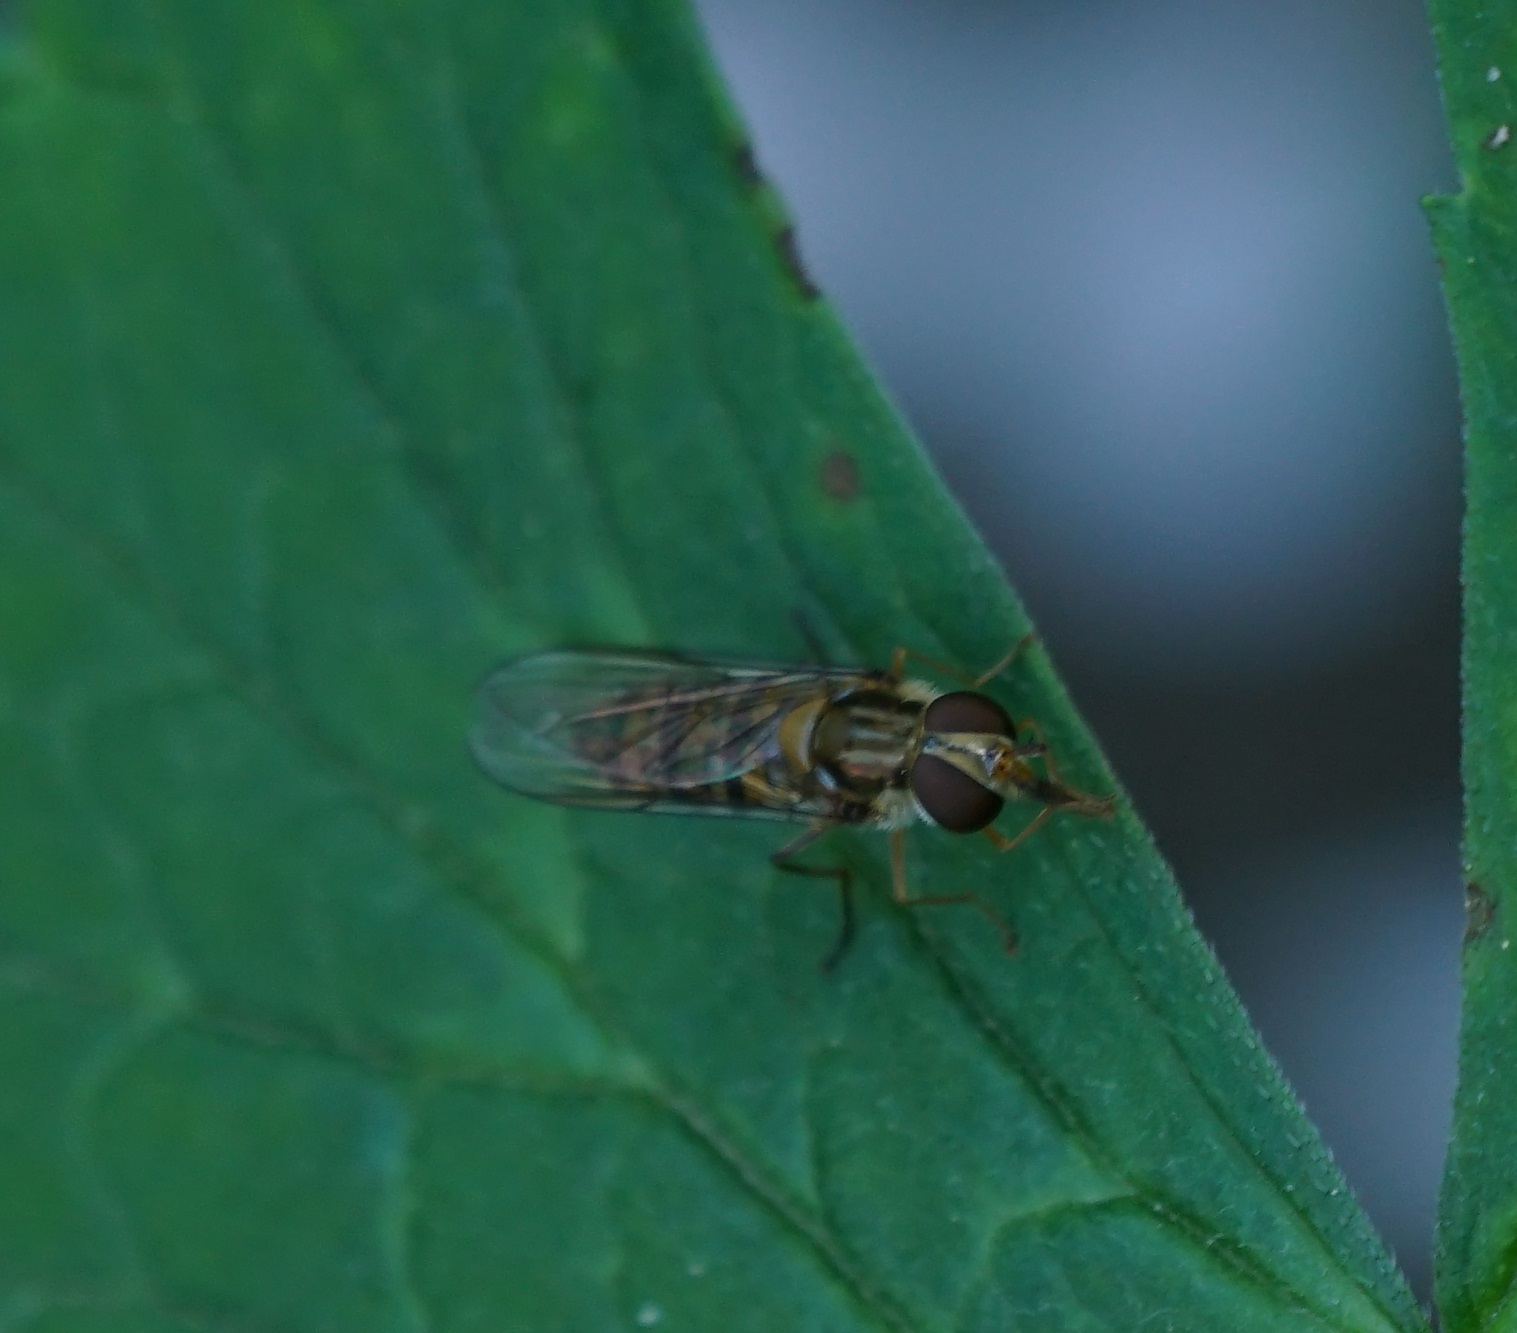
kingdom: Animalia
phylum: Arthropoda
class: Insecta
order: Diptera
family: Syrphidae
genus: Episyrphus
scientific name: Episyrphus balteatus
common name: Marmalade hoverfly
